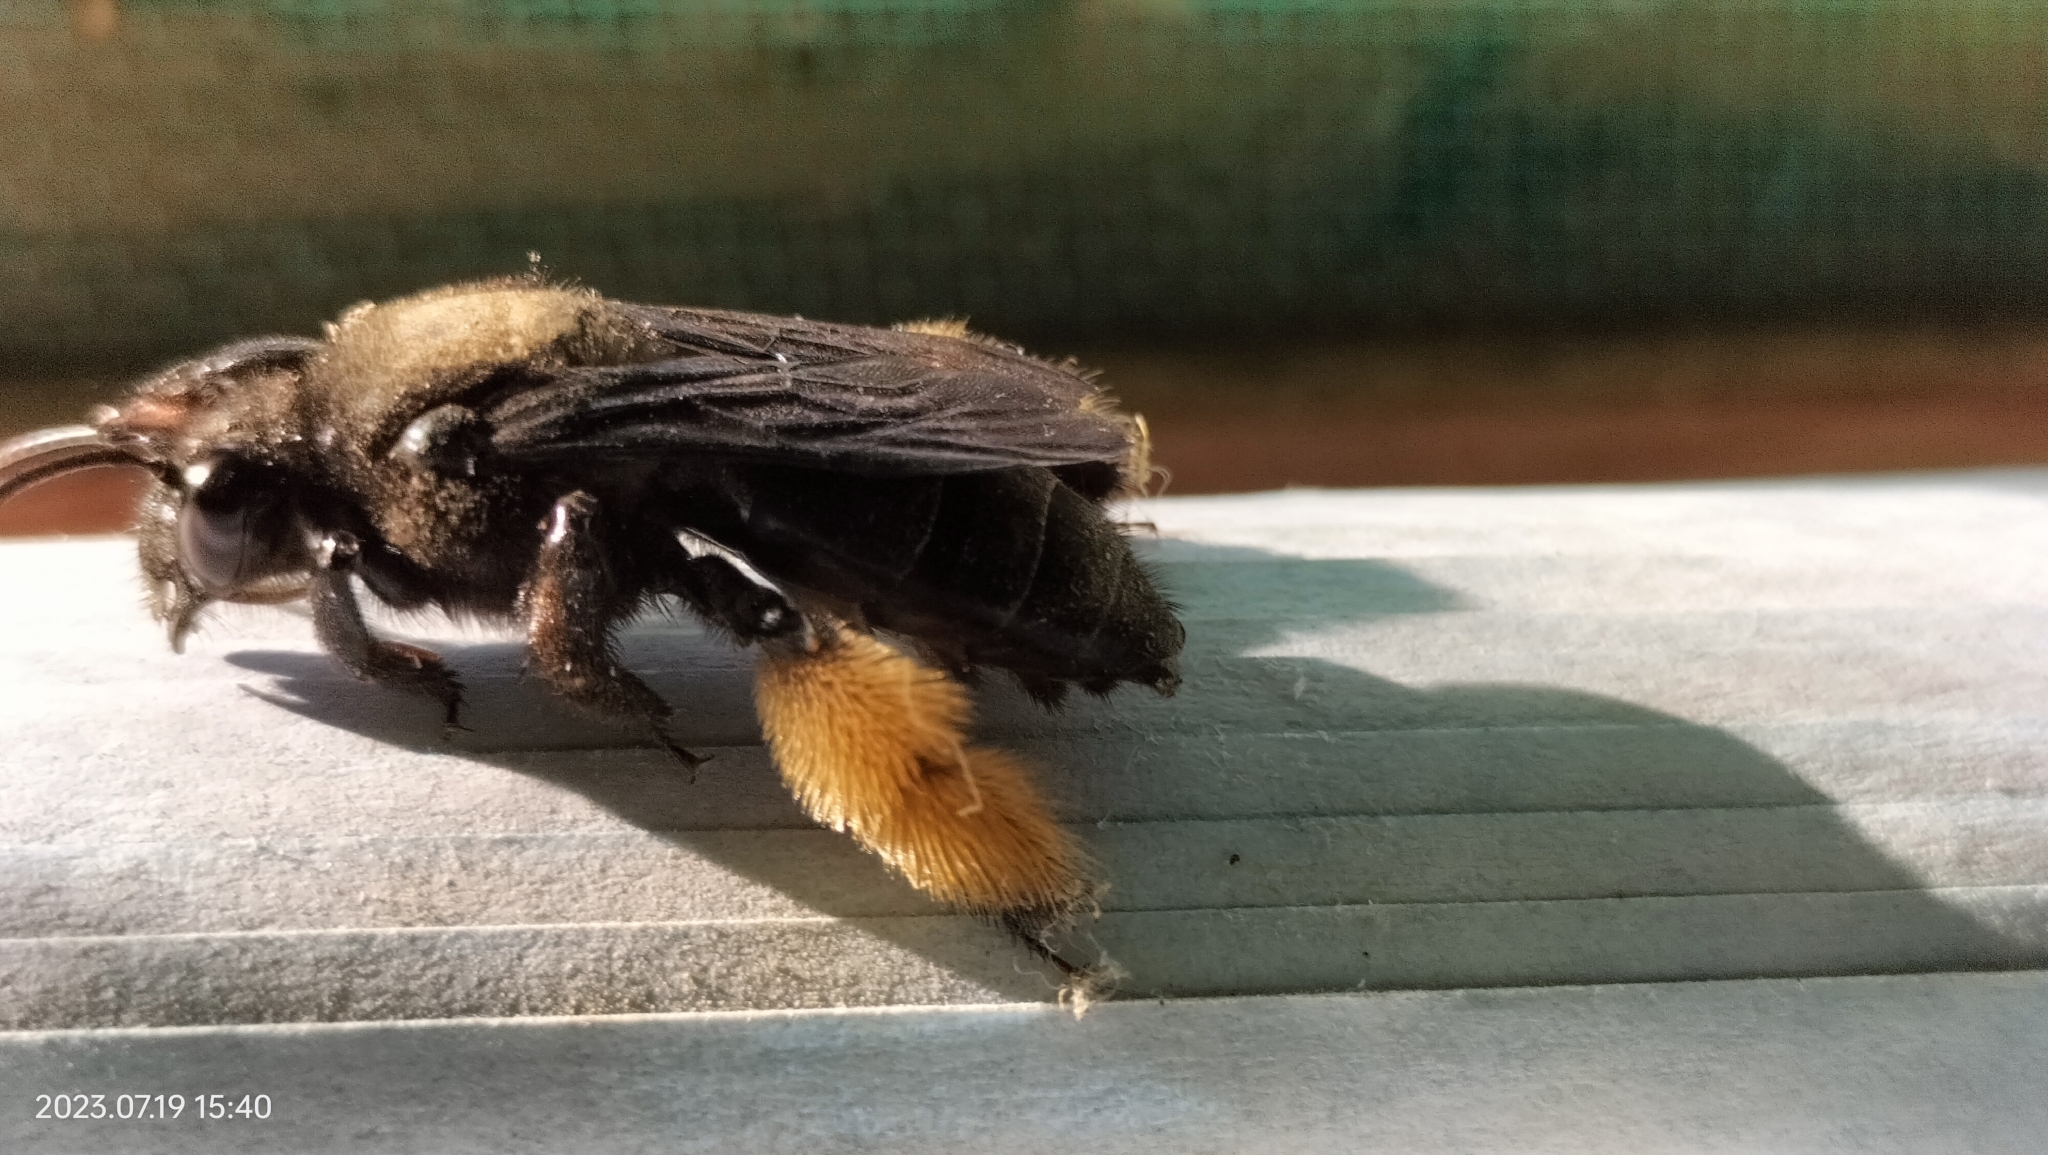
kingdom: Animalia
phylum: Arthropoda
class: Insecta
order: Hymenoptera
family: Apidae
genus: Epicharis
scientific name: Epicharis
